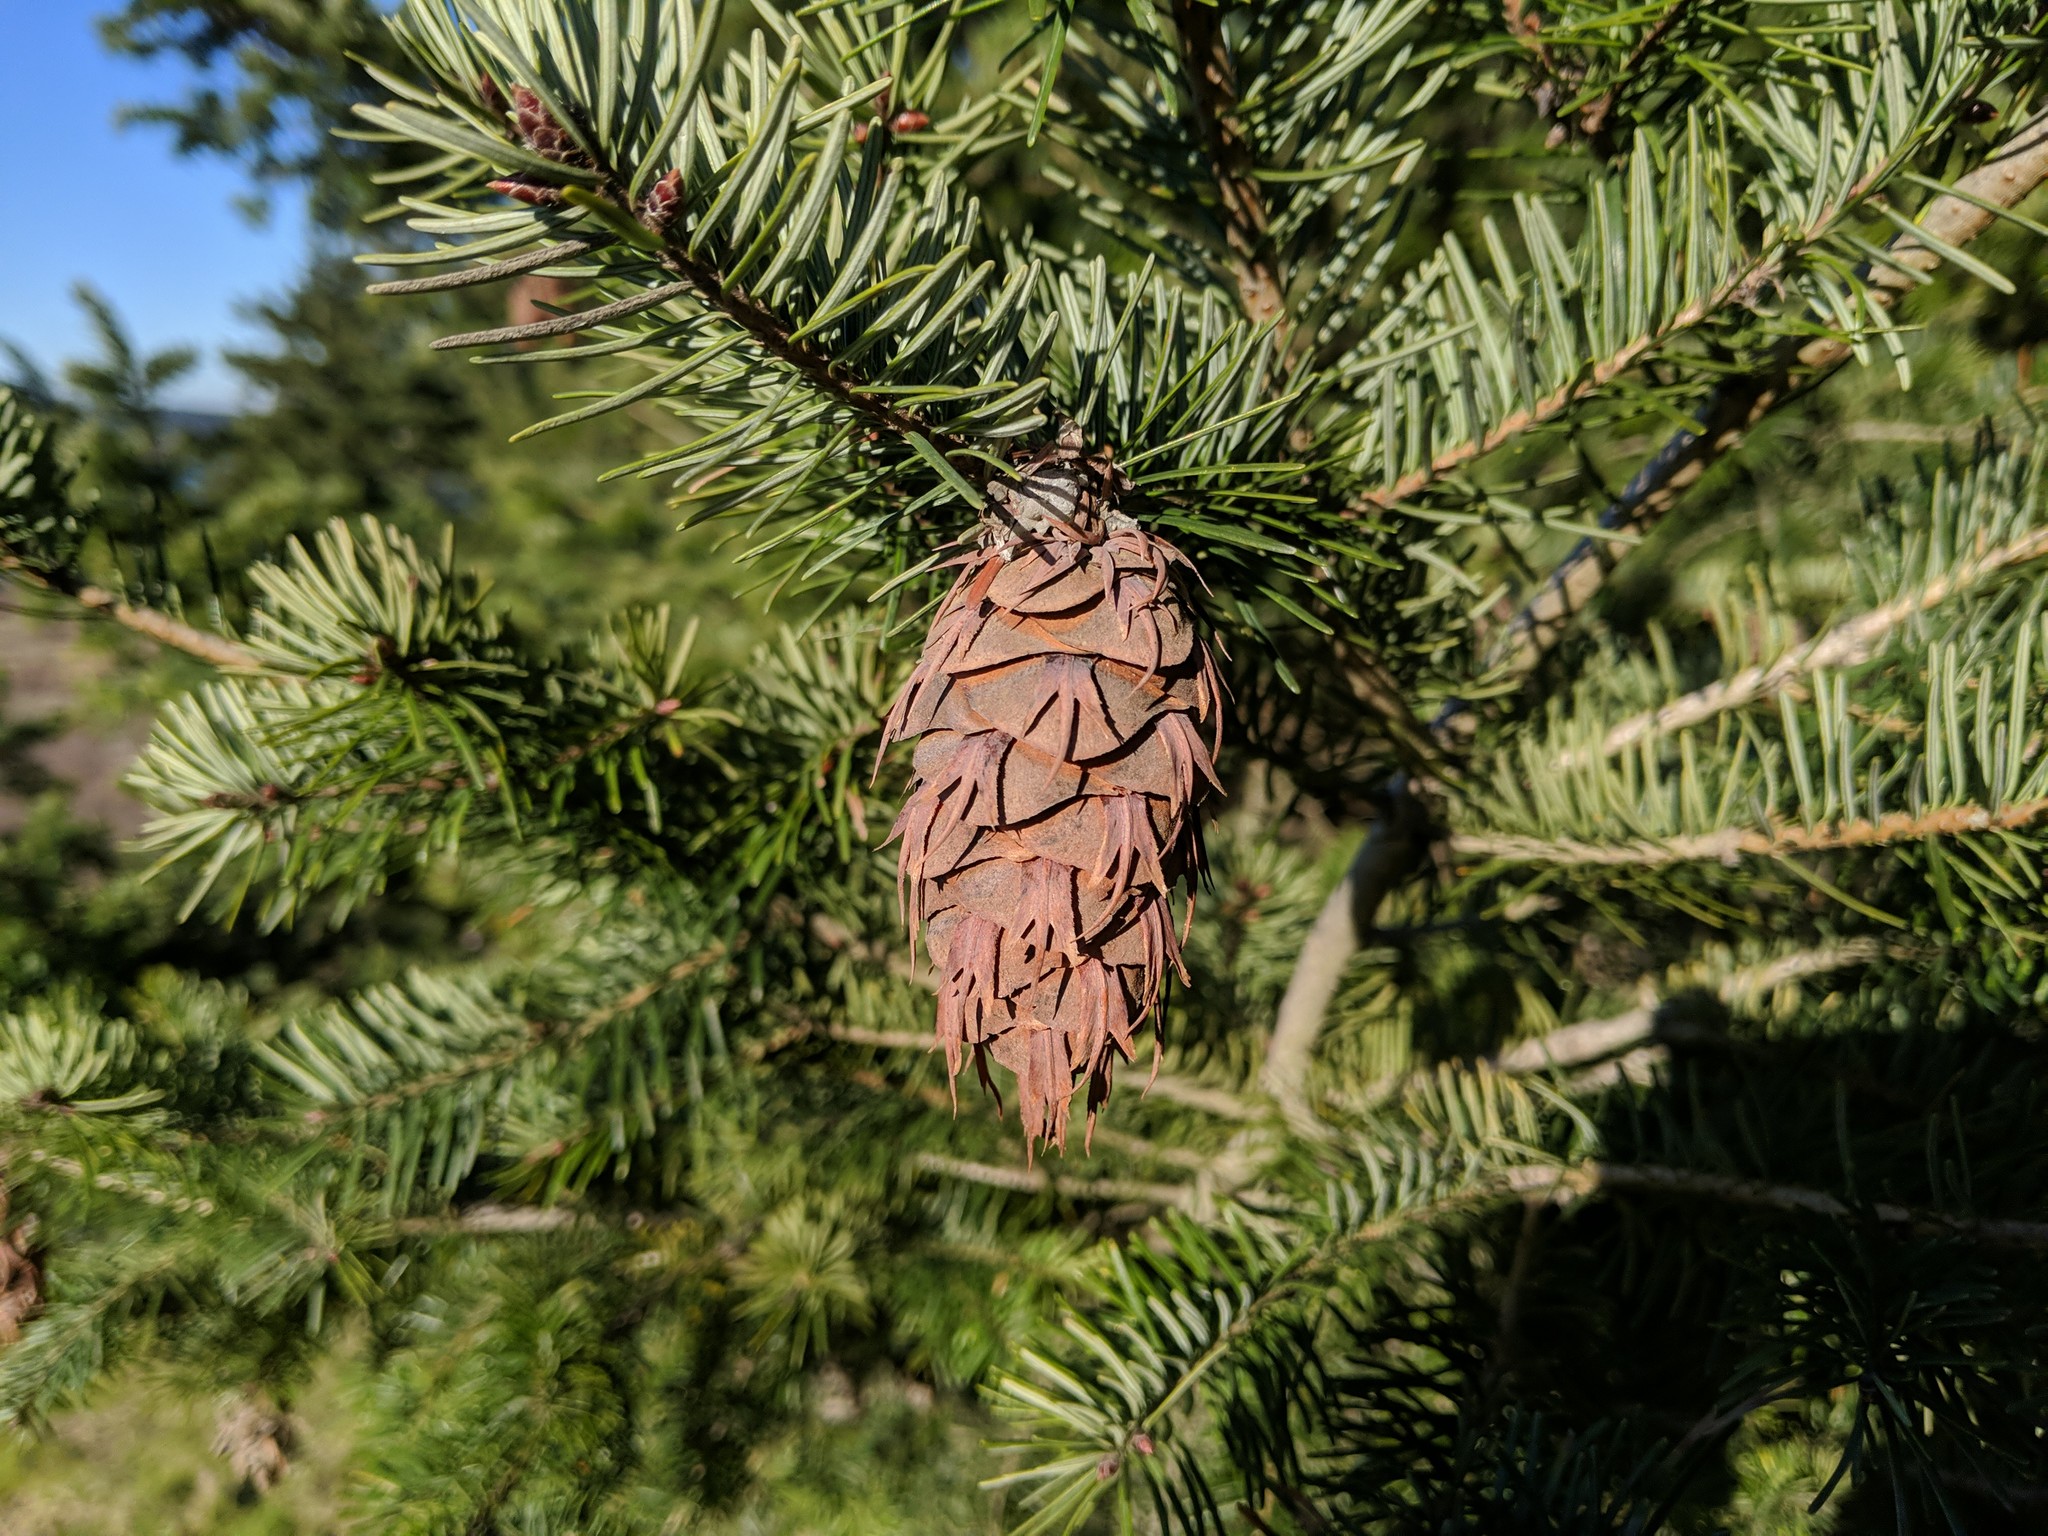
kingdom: Plantae
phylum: Tracheophyta
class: Pinopsida
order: Pinales
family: Pinaceae
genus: Pseudotsuga
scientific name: Pseudotsuga menziesii
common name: Douglas fir
